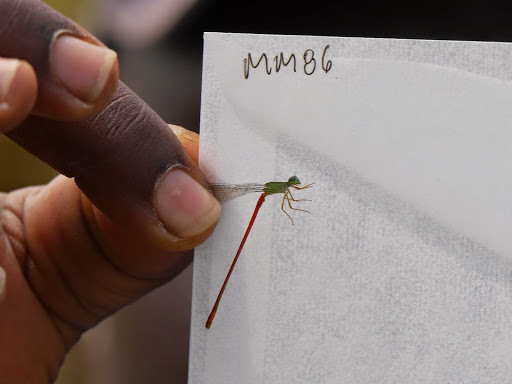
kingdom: Animalia
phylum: Arthropoda
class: Insecta
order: Odonata
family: Coenagrionidae
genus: Ceriagrion
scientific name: Ceriagrion corallinum
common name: Green-fronted waxtail
